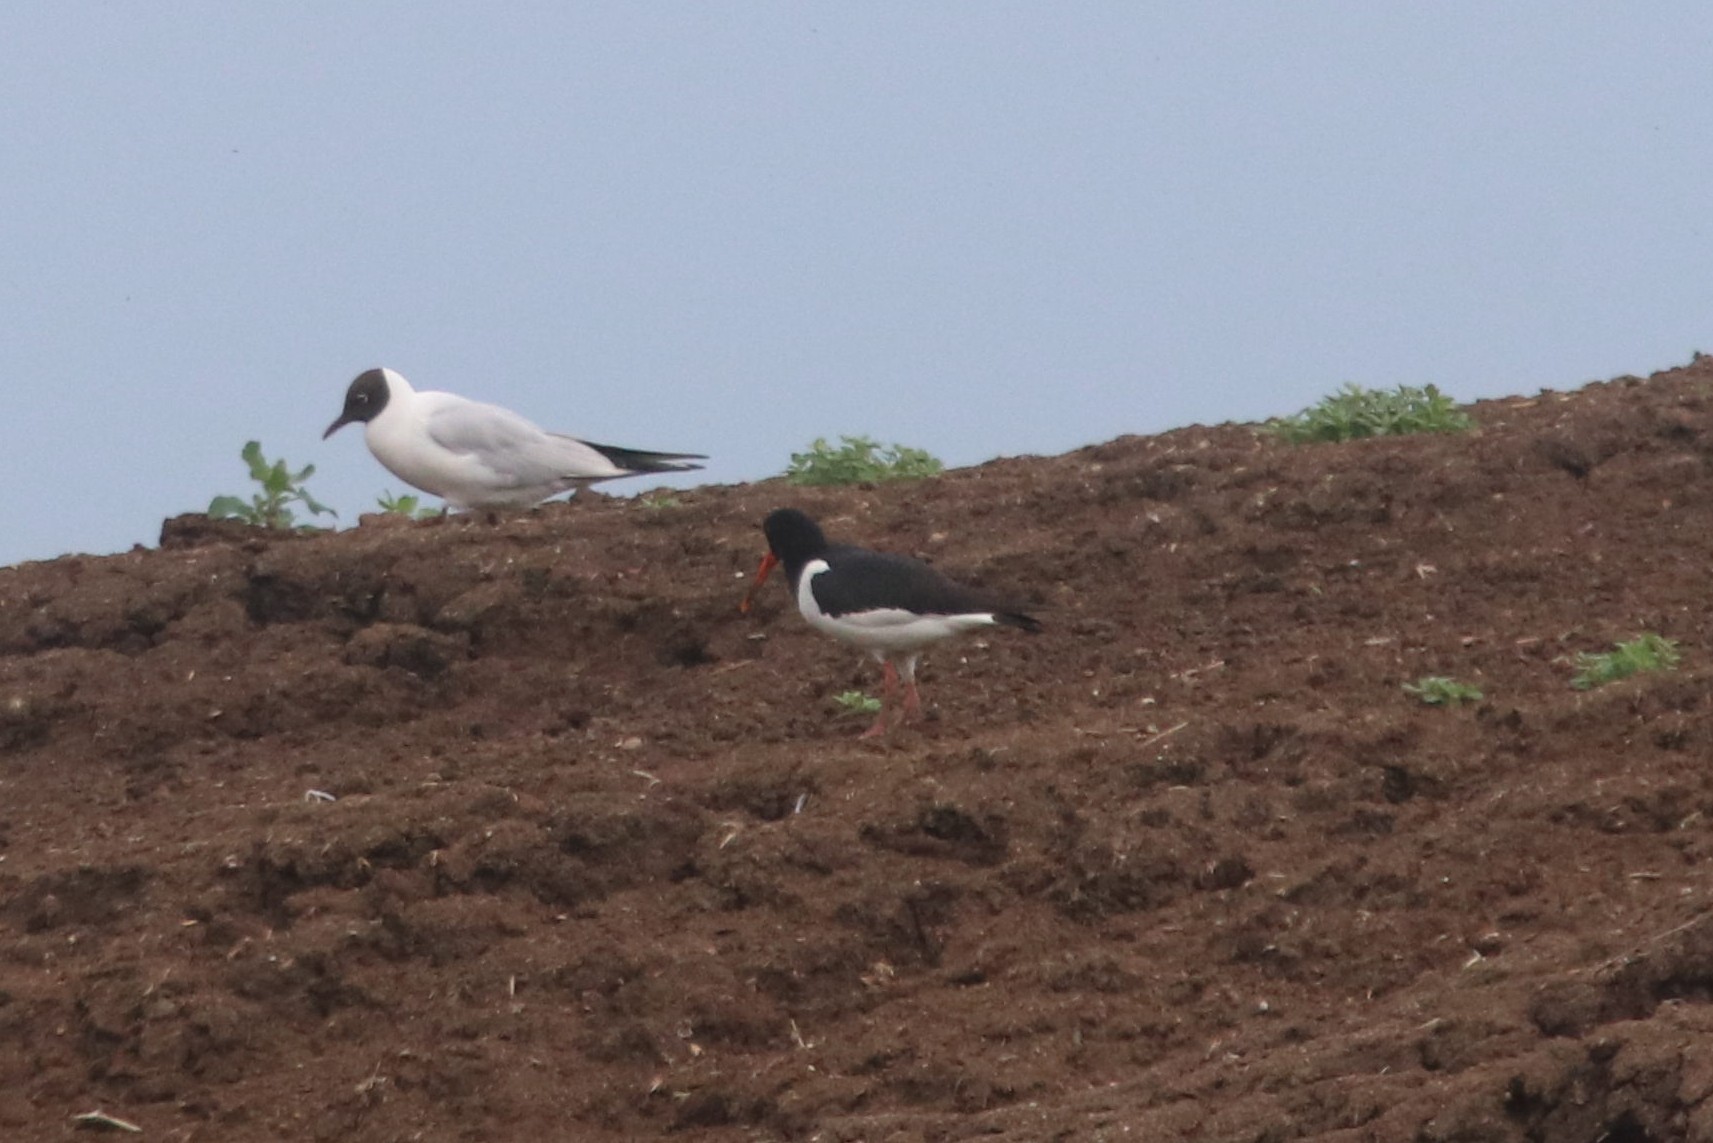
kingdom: Animalia
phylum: Chordata
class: Aves
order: Charadriiformes
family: Haematopodidae
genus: Haematopus
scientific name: Haematopus ostralegus
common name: Eurasian oystercatcher
